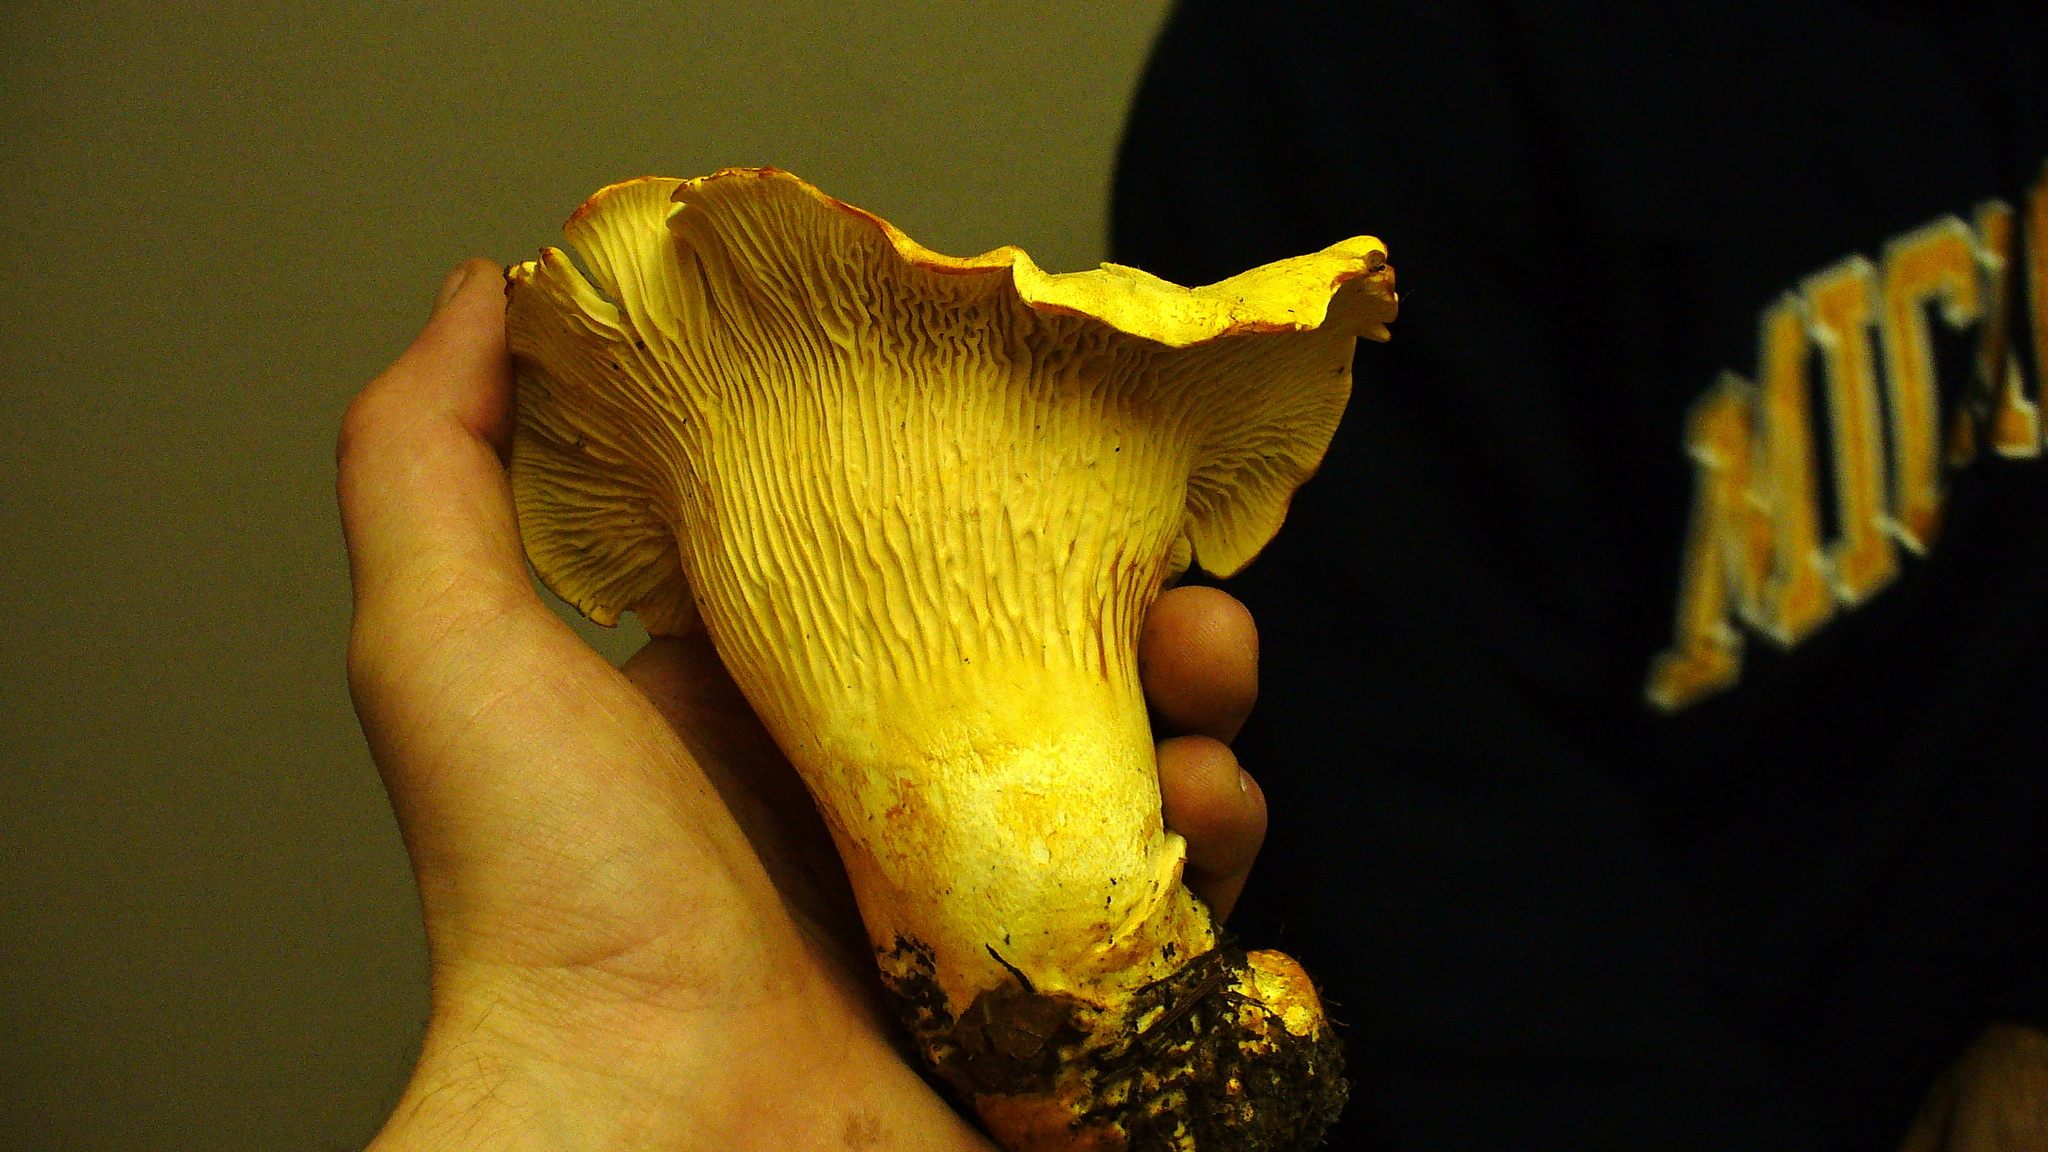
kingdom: Fungi
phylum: Basidiomycota
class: Agaricomycetes
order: Cantharellales
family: Hydnaceae
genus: Cantharellus
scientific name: Cantharellus formosus
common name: Pacific golden chanterelle
